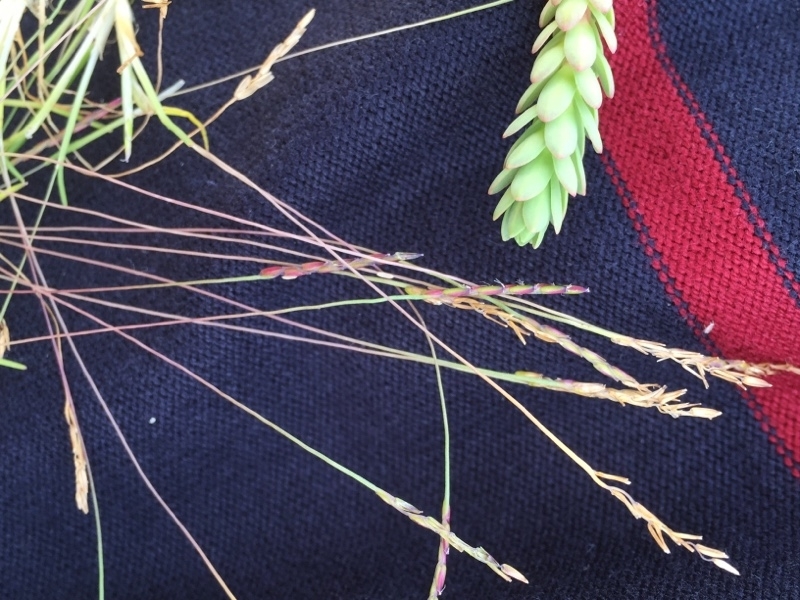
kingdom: Plantae
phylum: Tracheophyta
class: Magnoliopsida
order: Malpighiales
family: Euphorbiaceae
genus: Euphorbia
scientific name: Euphorbia paralias
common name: Sea spurge
